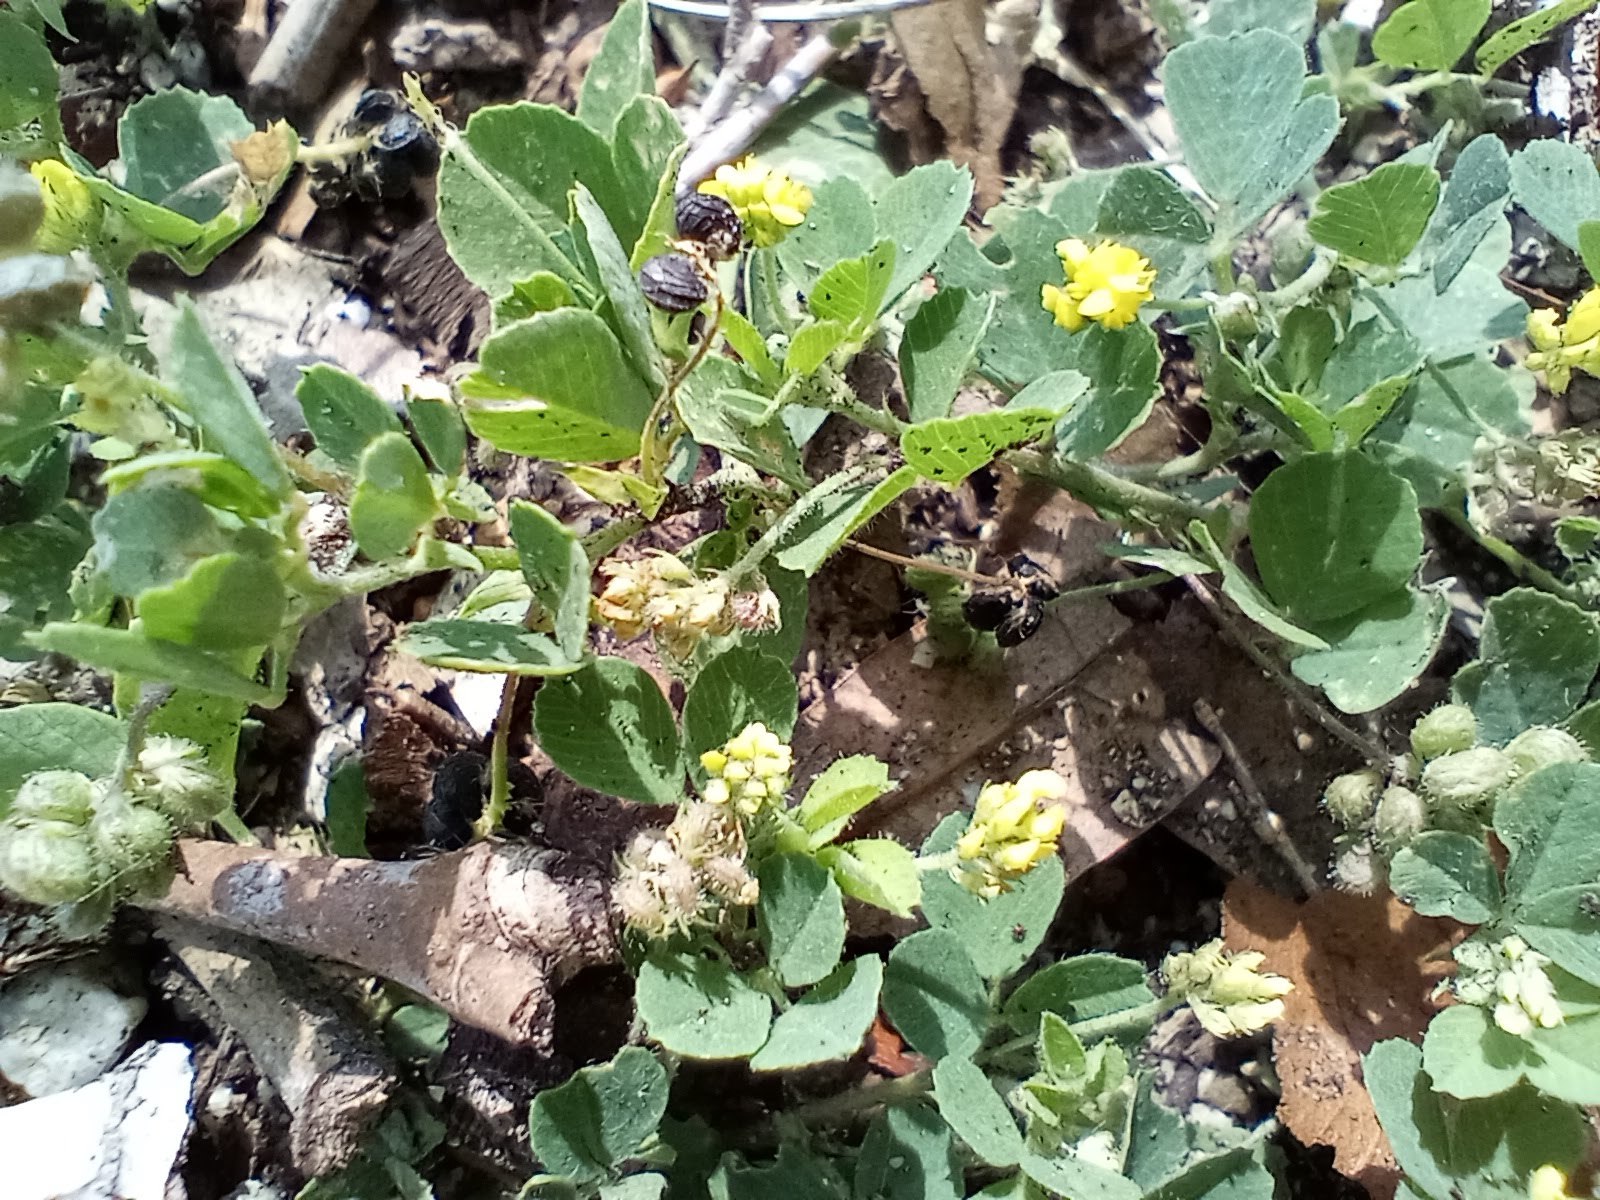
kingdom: Plantae
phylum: Tracheophyta
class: Magnoliopsida
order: Fabales
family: Fabaceae
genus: Medicago
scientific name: Medicago lupulina
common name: Black medick
